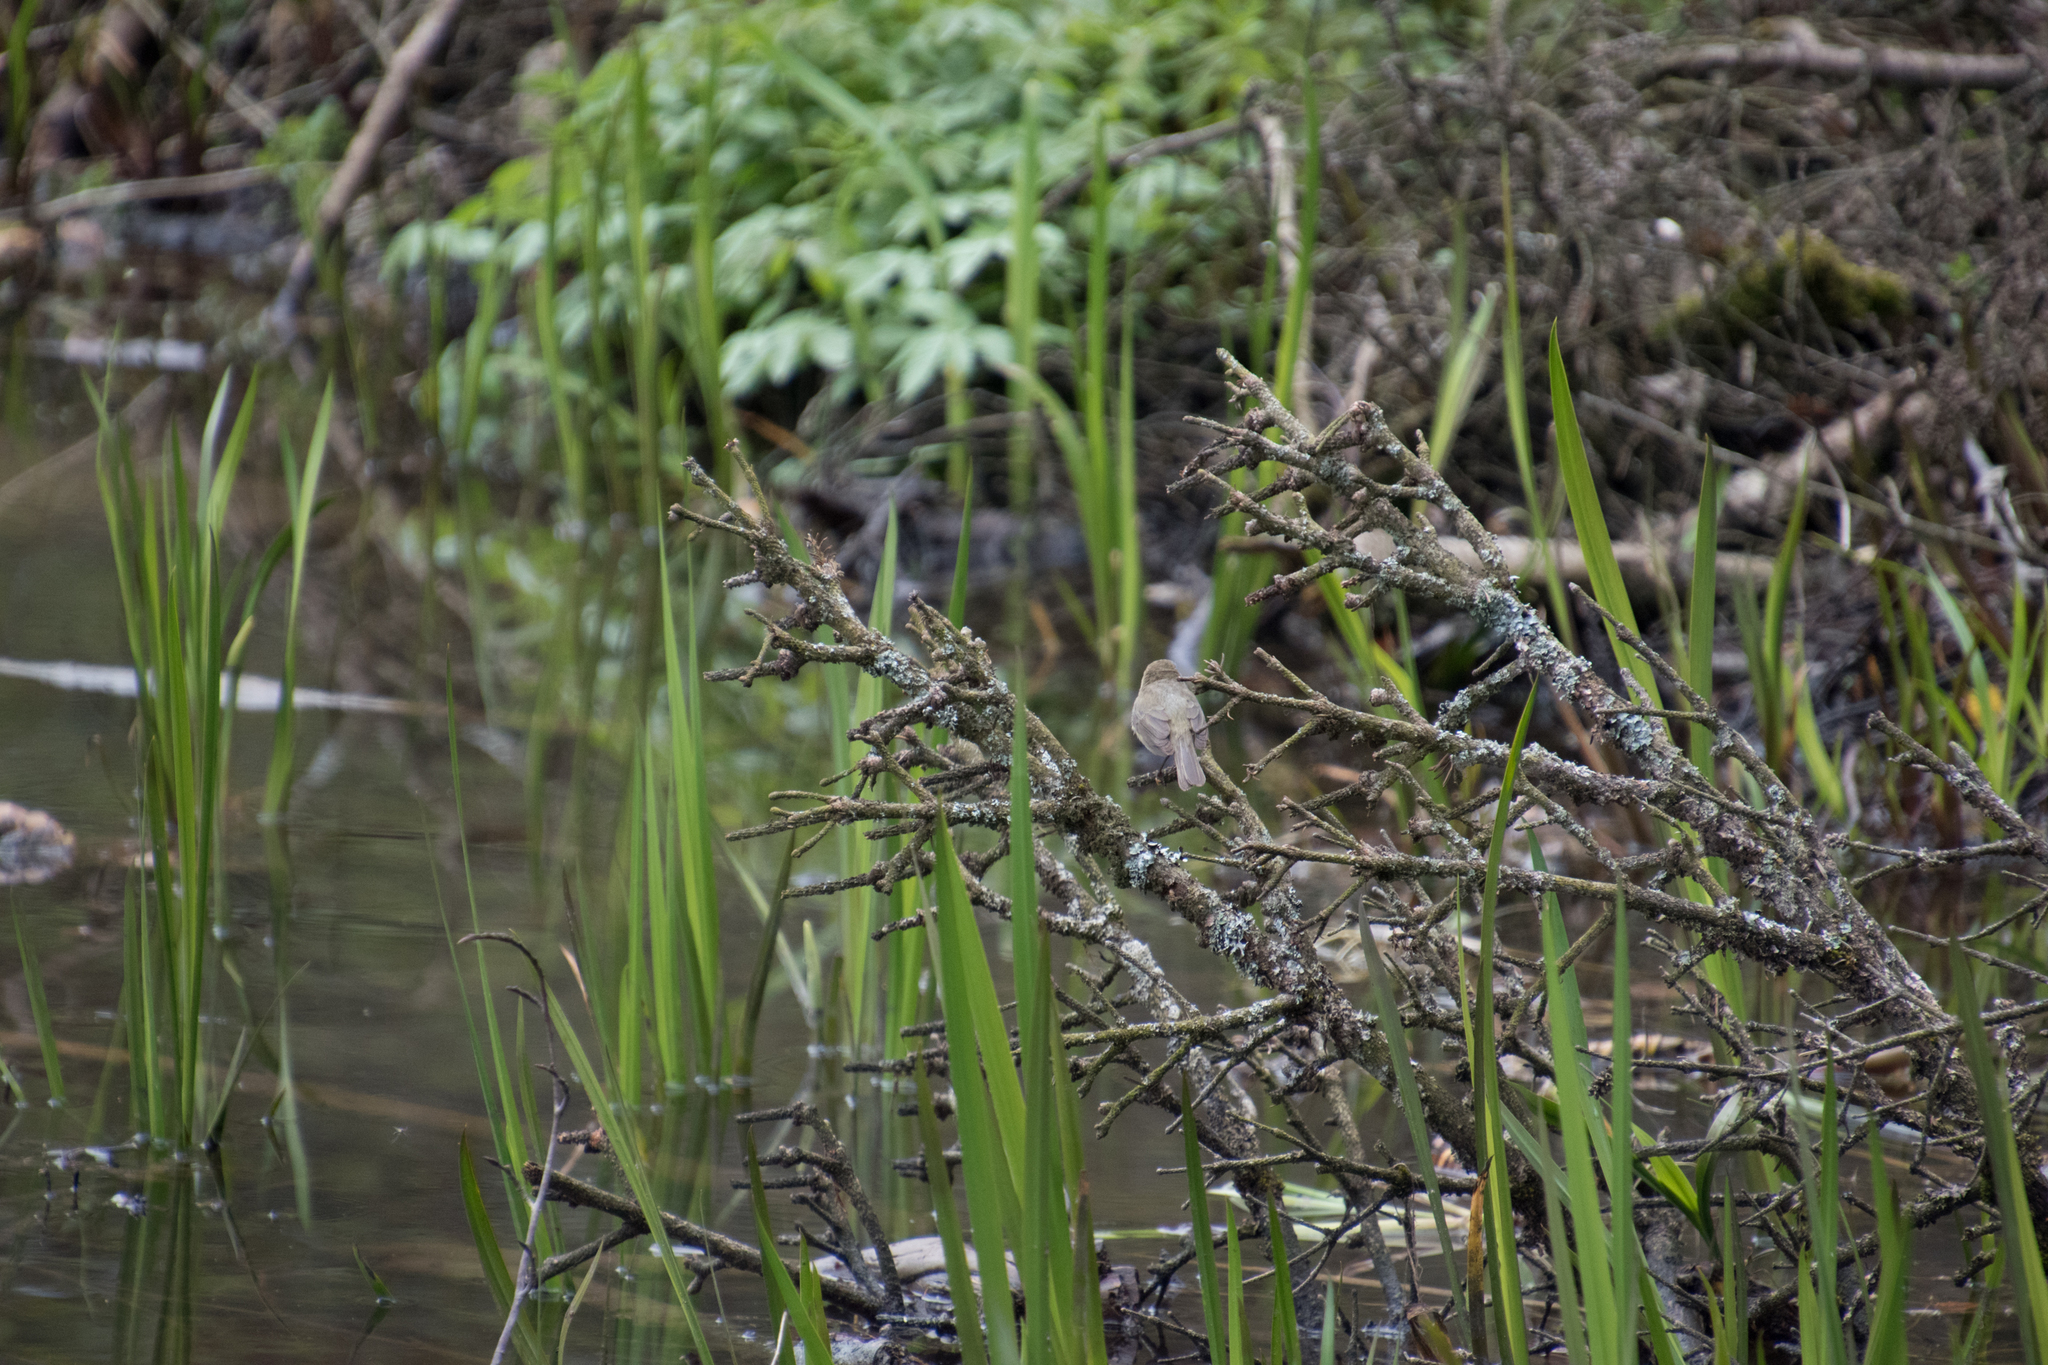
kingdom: Animalia
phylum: Chordata
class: Aves
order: Passeriformes
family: Phylloscopidae
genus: Phylloscopus
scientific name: Phylloscopus collybita
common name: Common chiffchaff
